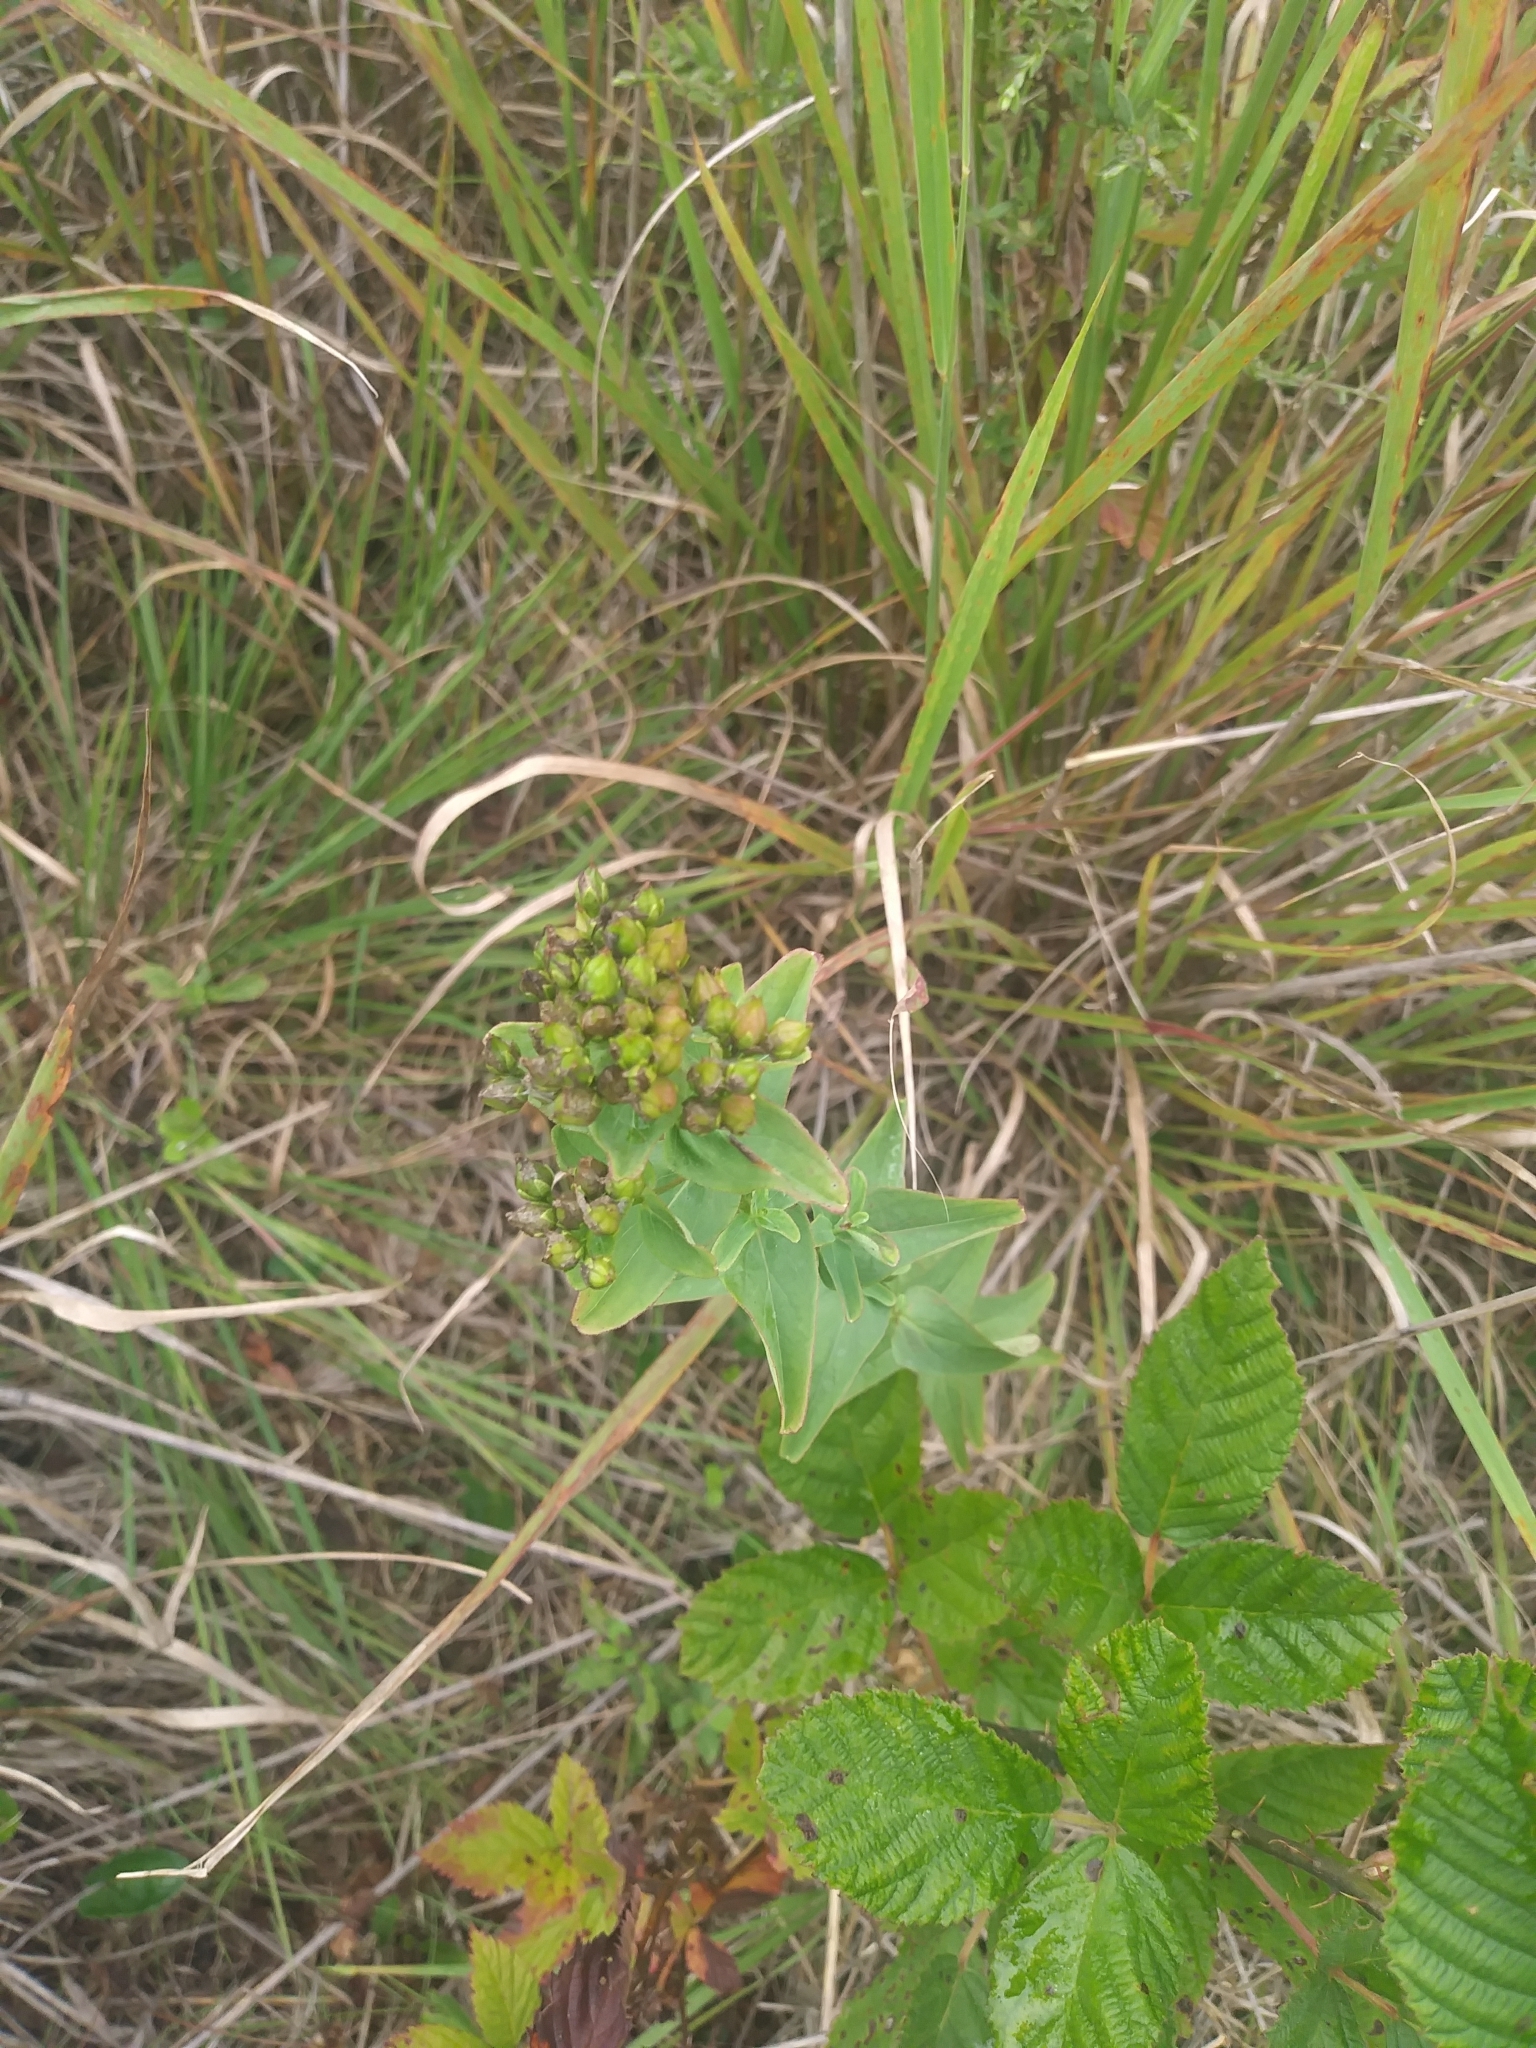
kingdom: Plantae
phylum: Tracheophyta
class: Magnoliopsida
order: Malpighiales
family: Hypericaceae
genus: Hypericum
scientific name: Hypericum punctatum
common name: Spotted st. john's-wort
